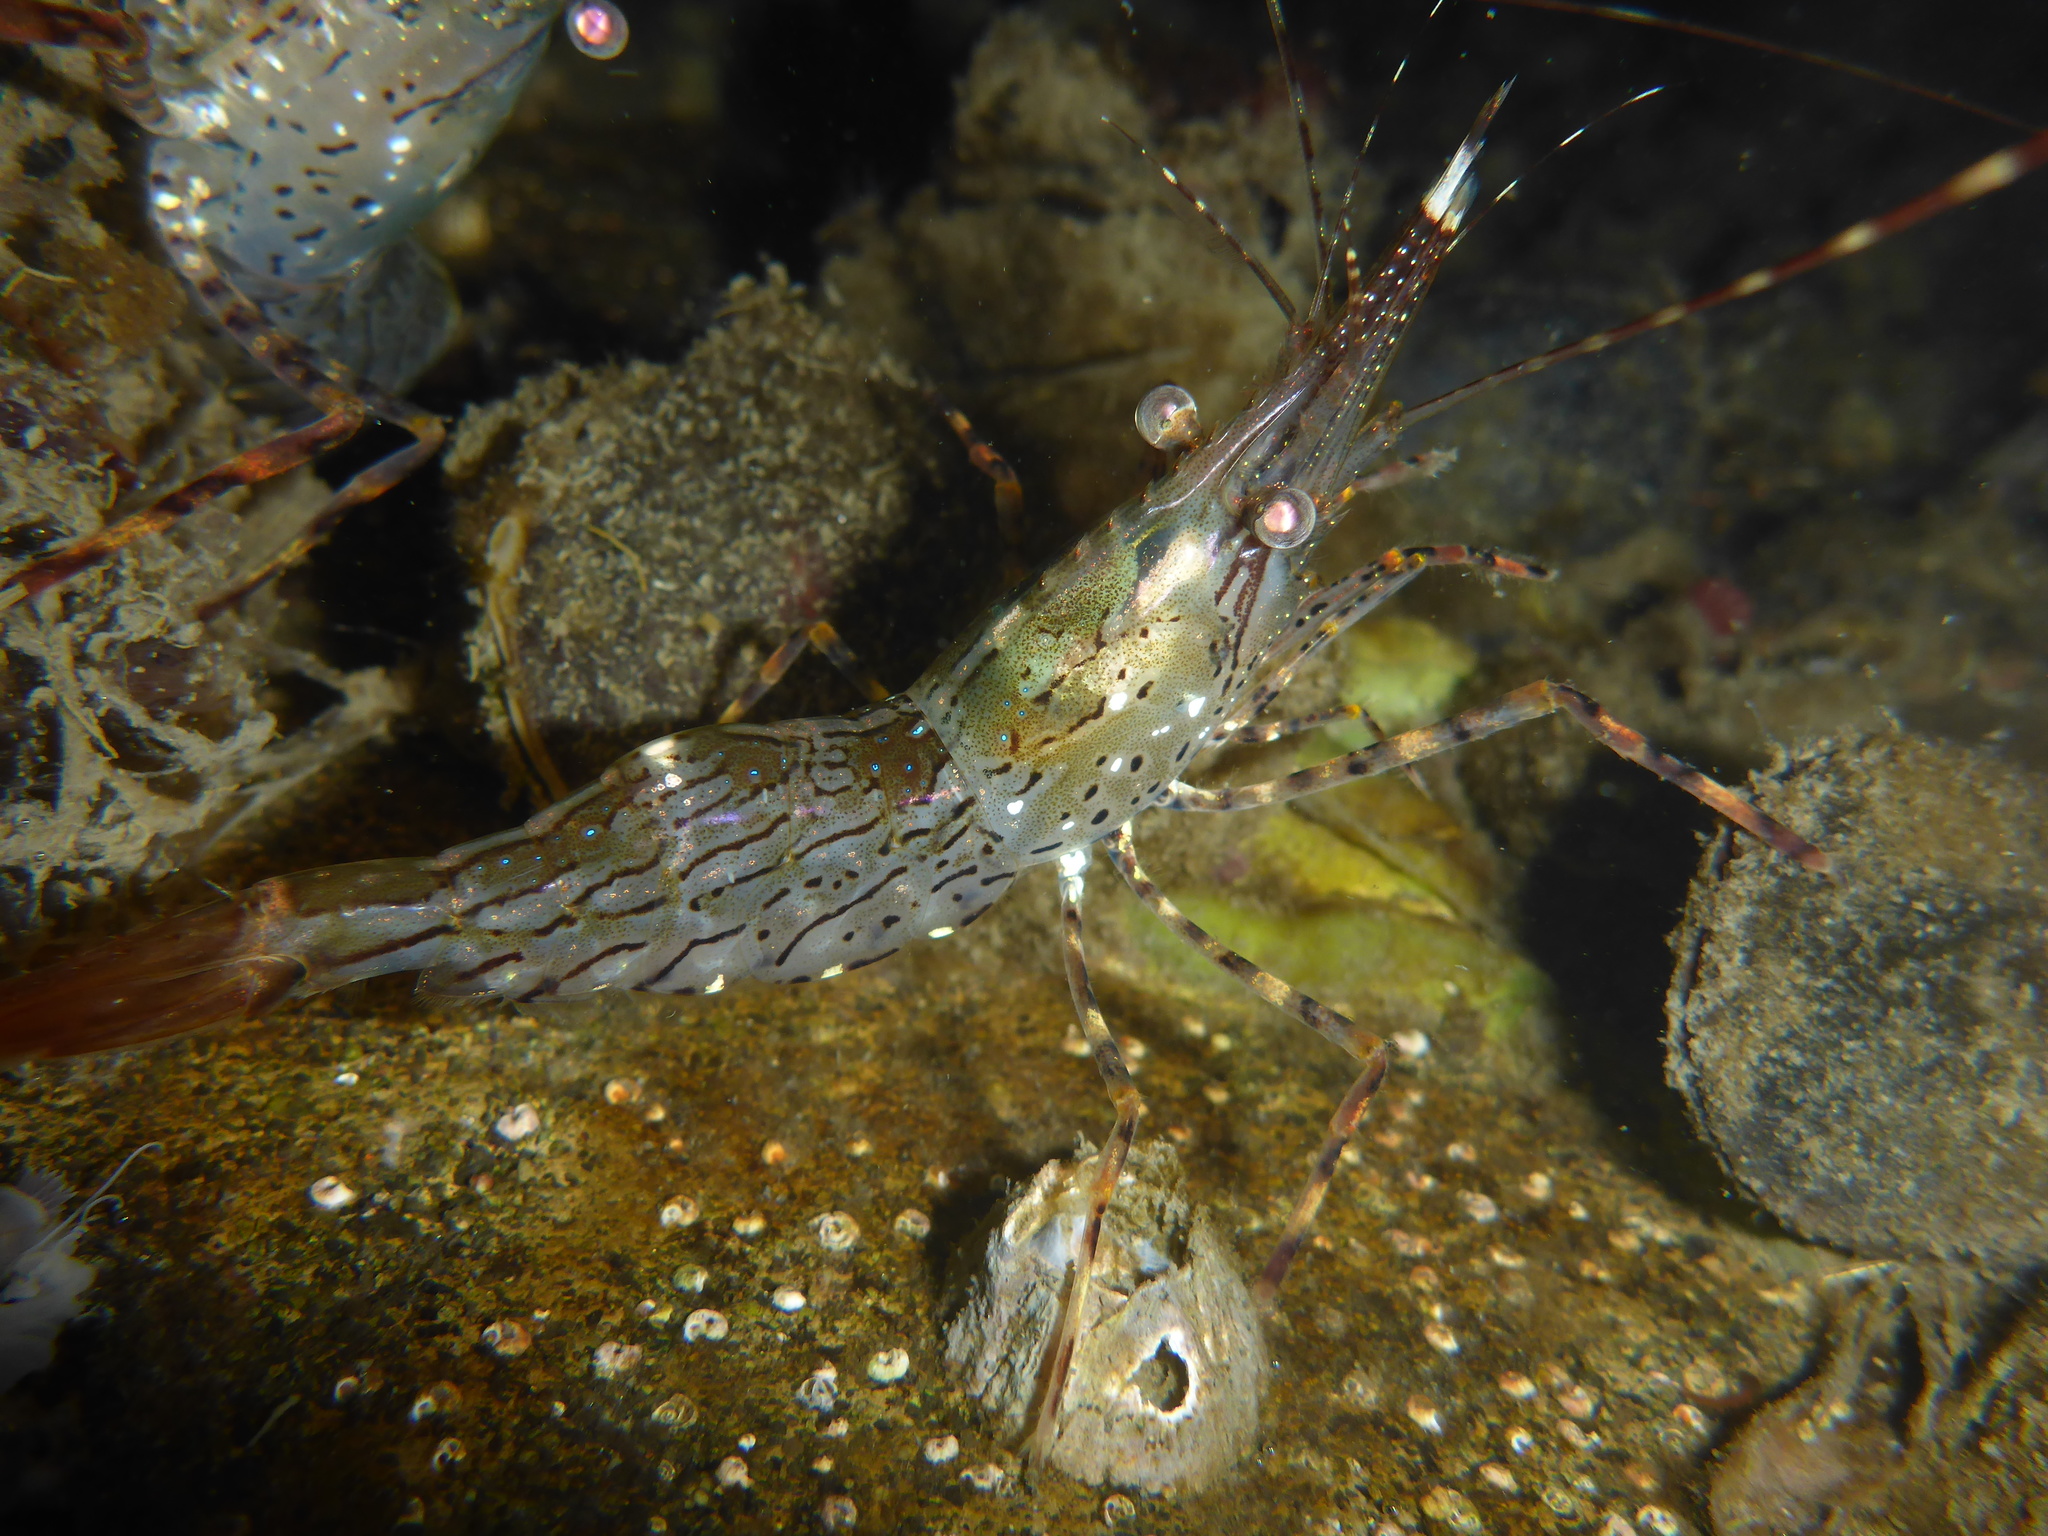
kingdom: Animalia
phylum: Arthropoda
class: Malacostraca
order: Decapoda
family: Pandalidae
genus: Pandalus
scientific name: Pandalus danae
